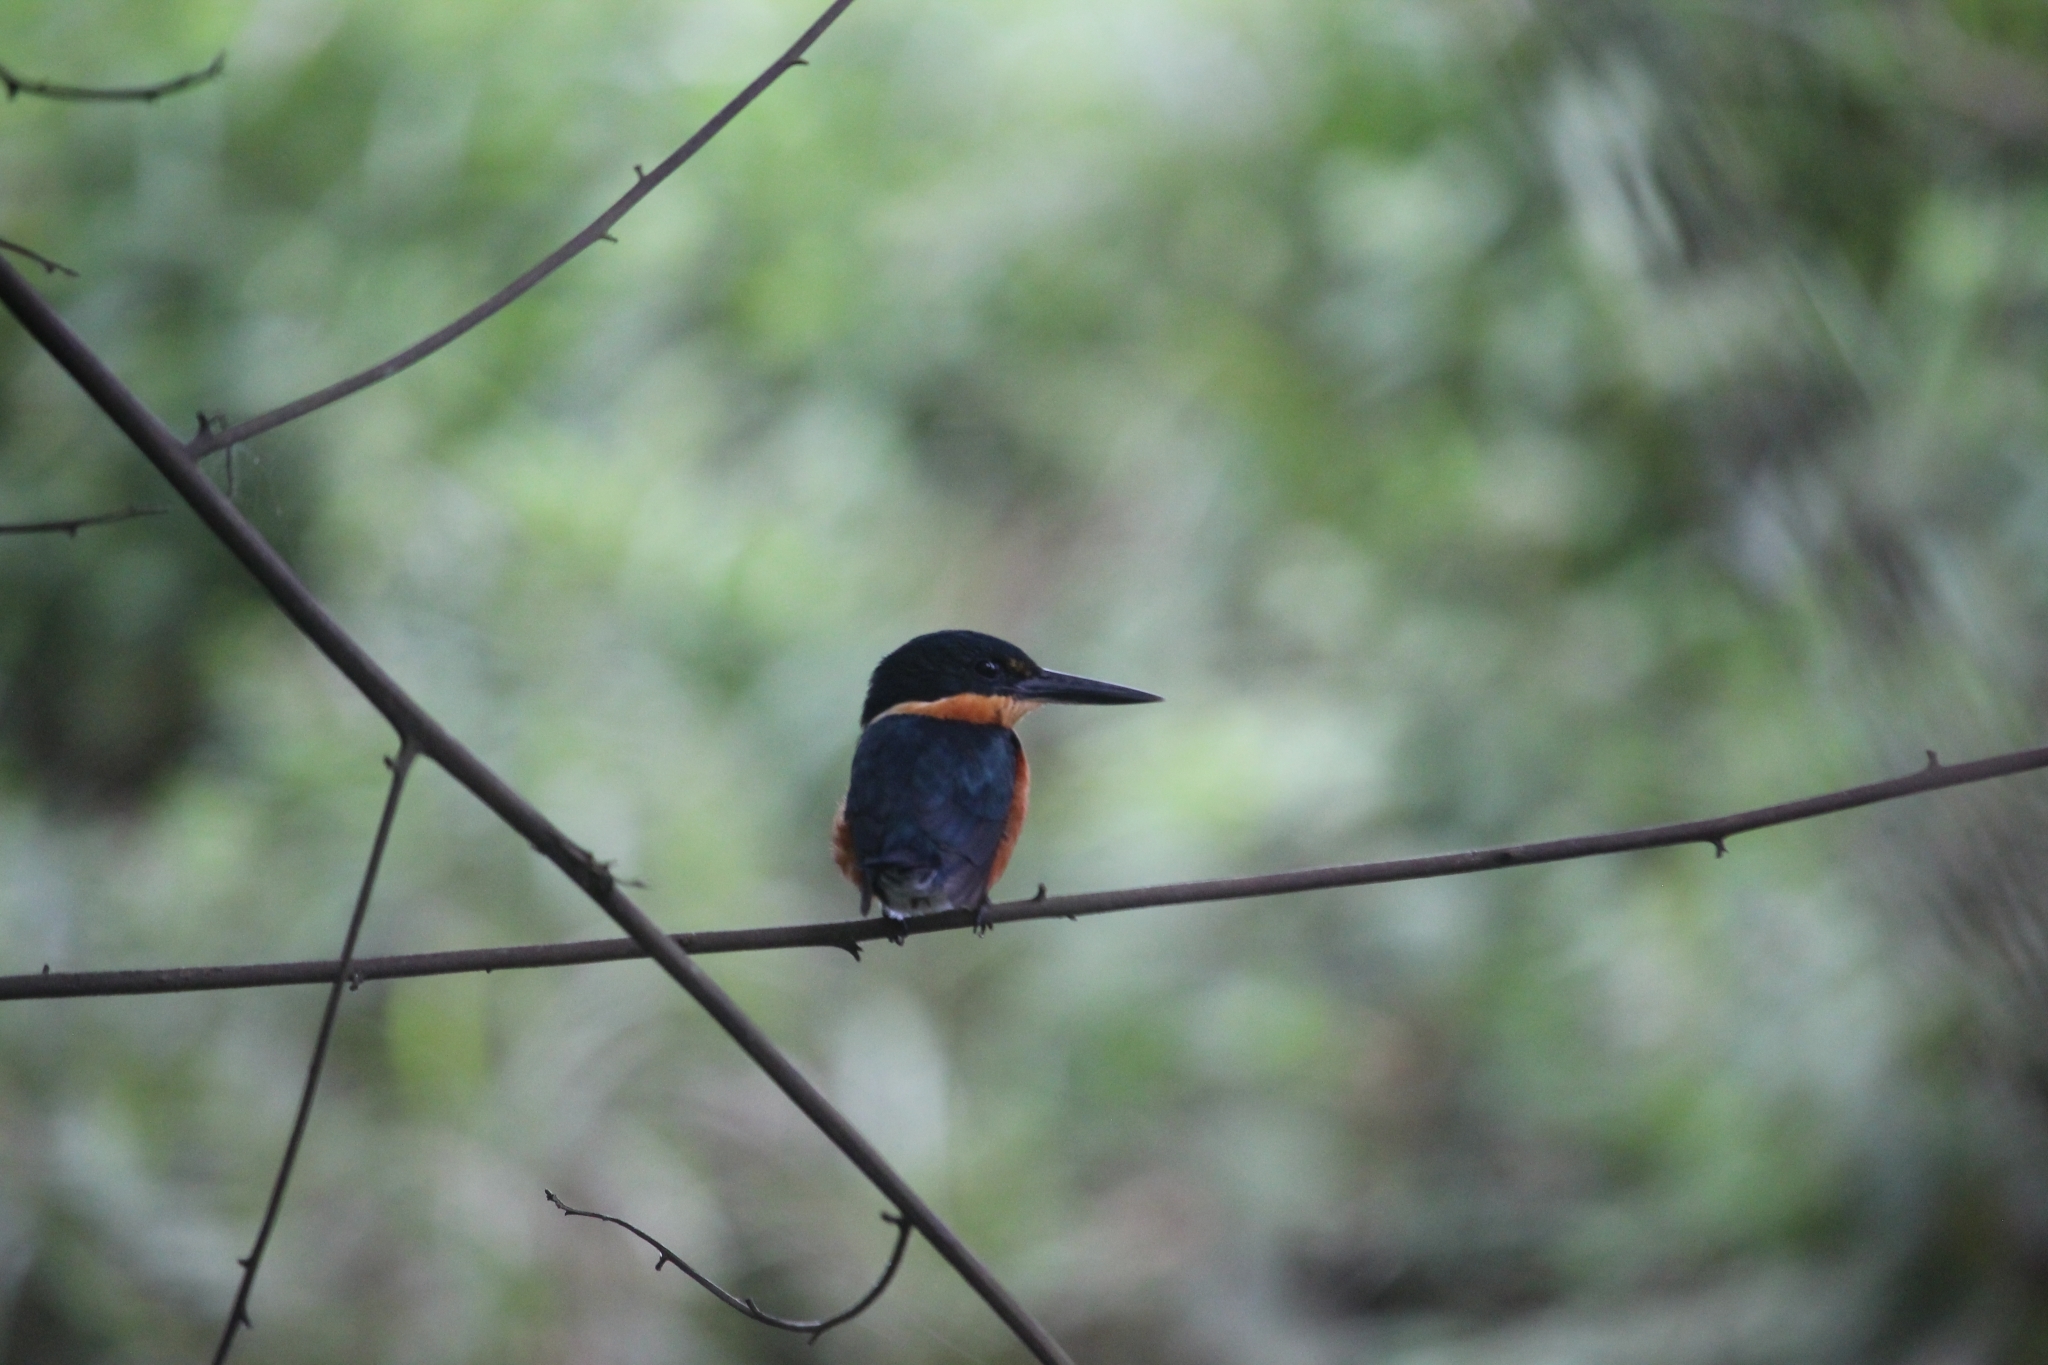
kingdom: Animalia
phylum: Chordata
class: Aves
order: Coraciiformes
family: Alcedinidae
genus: Chloroceryle
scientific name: Chloroceryle aenea
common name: American pygmy kingfisher
